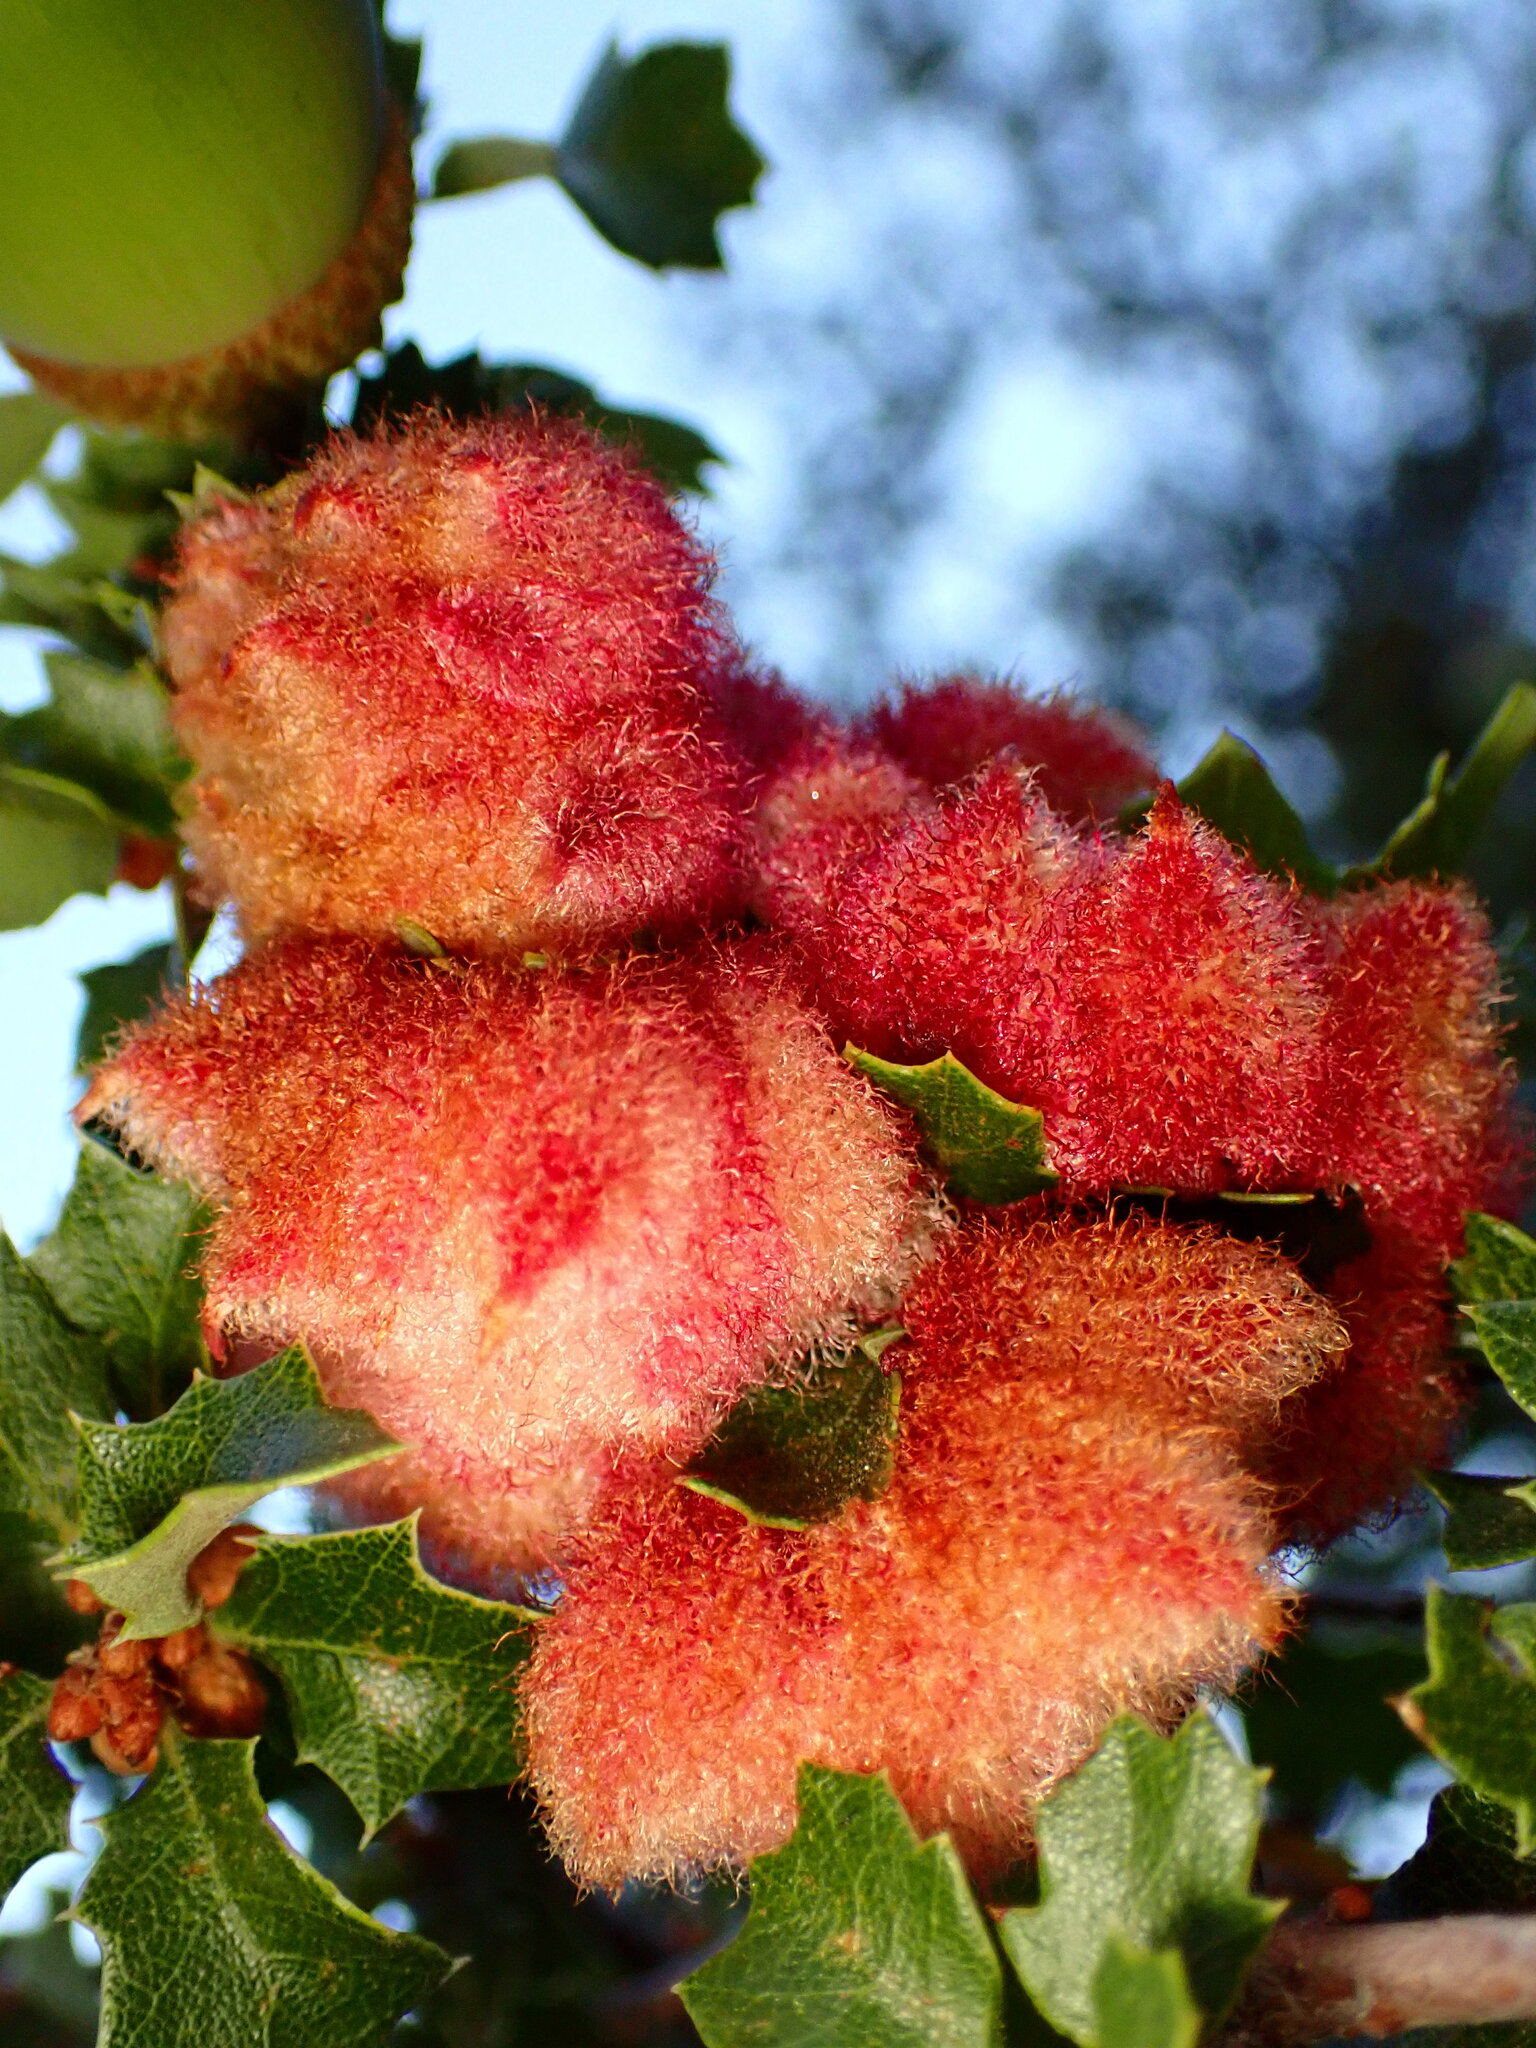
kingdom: Animalia
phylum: Arthropoda
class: Insecta
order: Hymenoptera
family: Cynipidae
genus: Andricus
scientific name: Andricus
